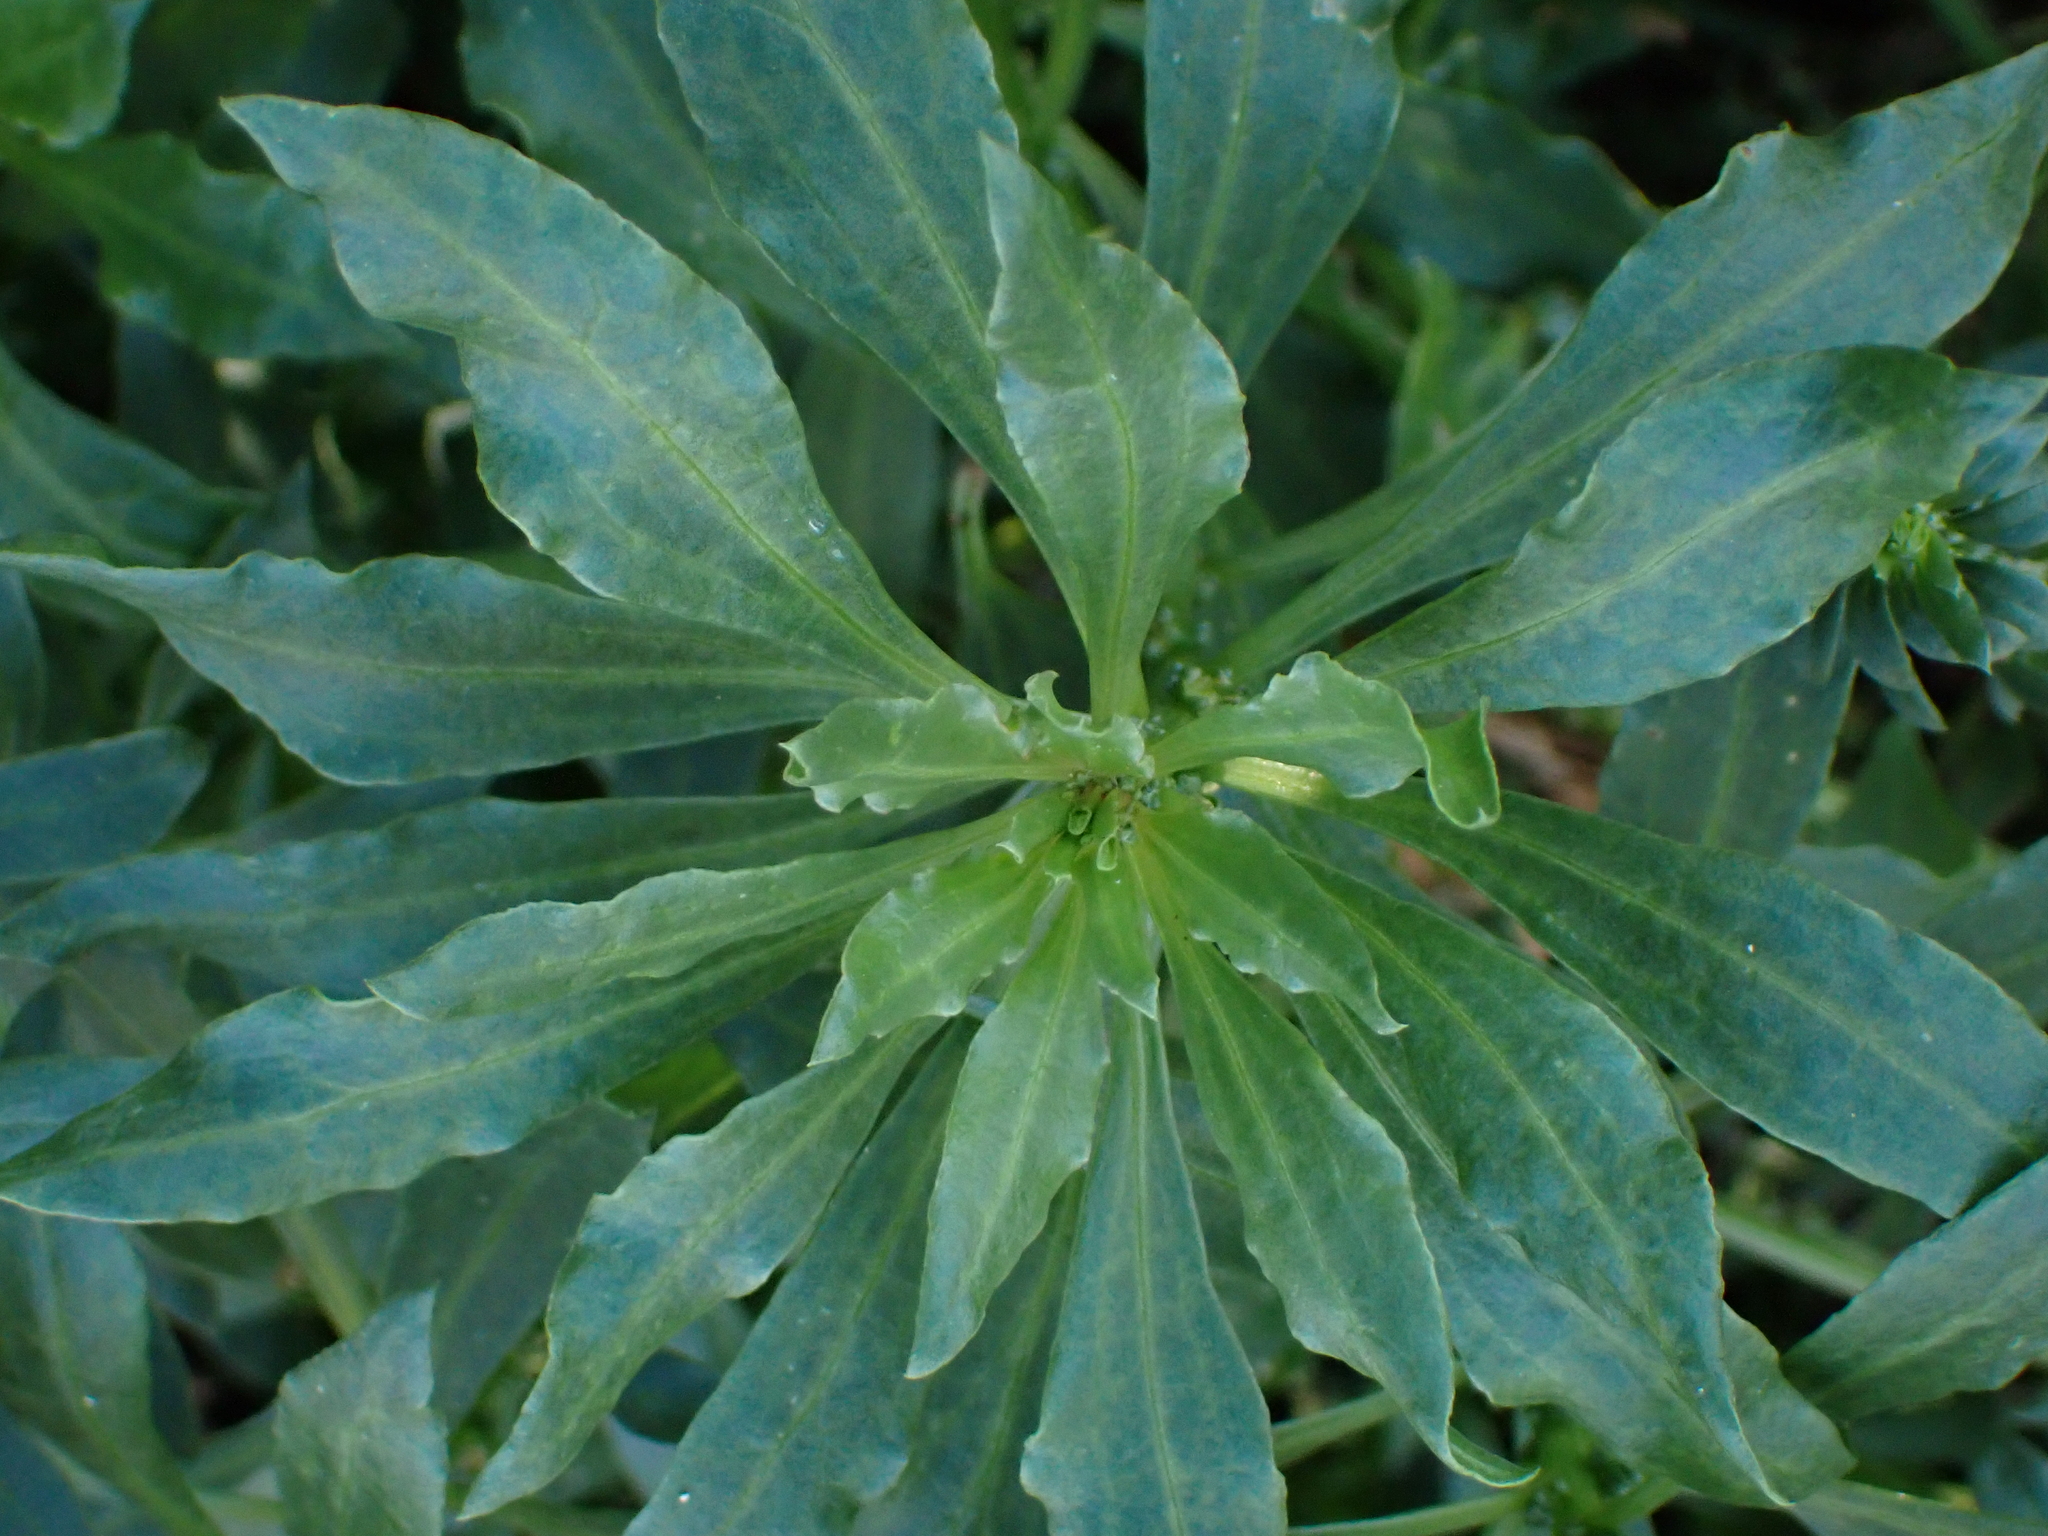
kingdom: Plantae
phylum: Tracheophyta
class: Magnoliopsida
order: Caryophyllales
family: Amaranthaceae
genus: Beta
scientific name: Beta vulgaris
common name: Beet
